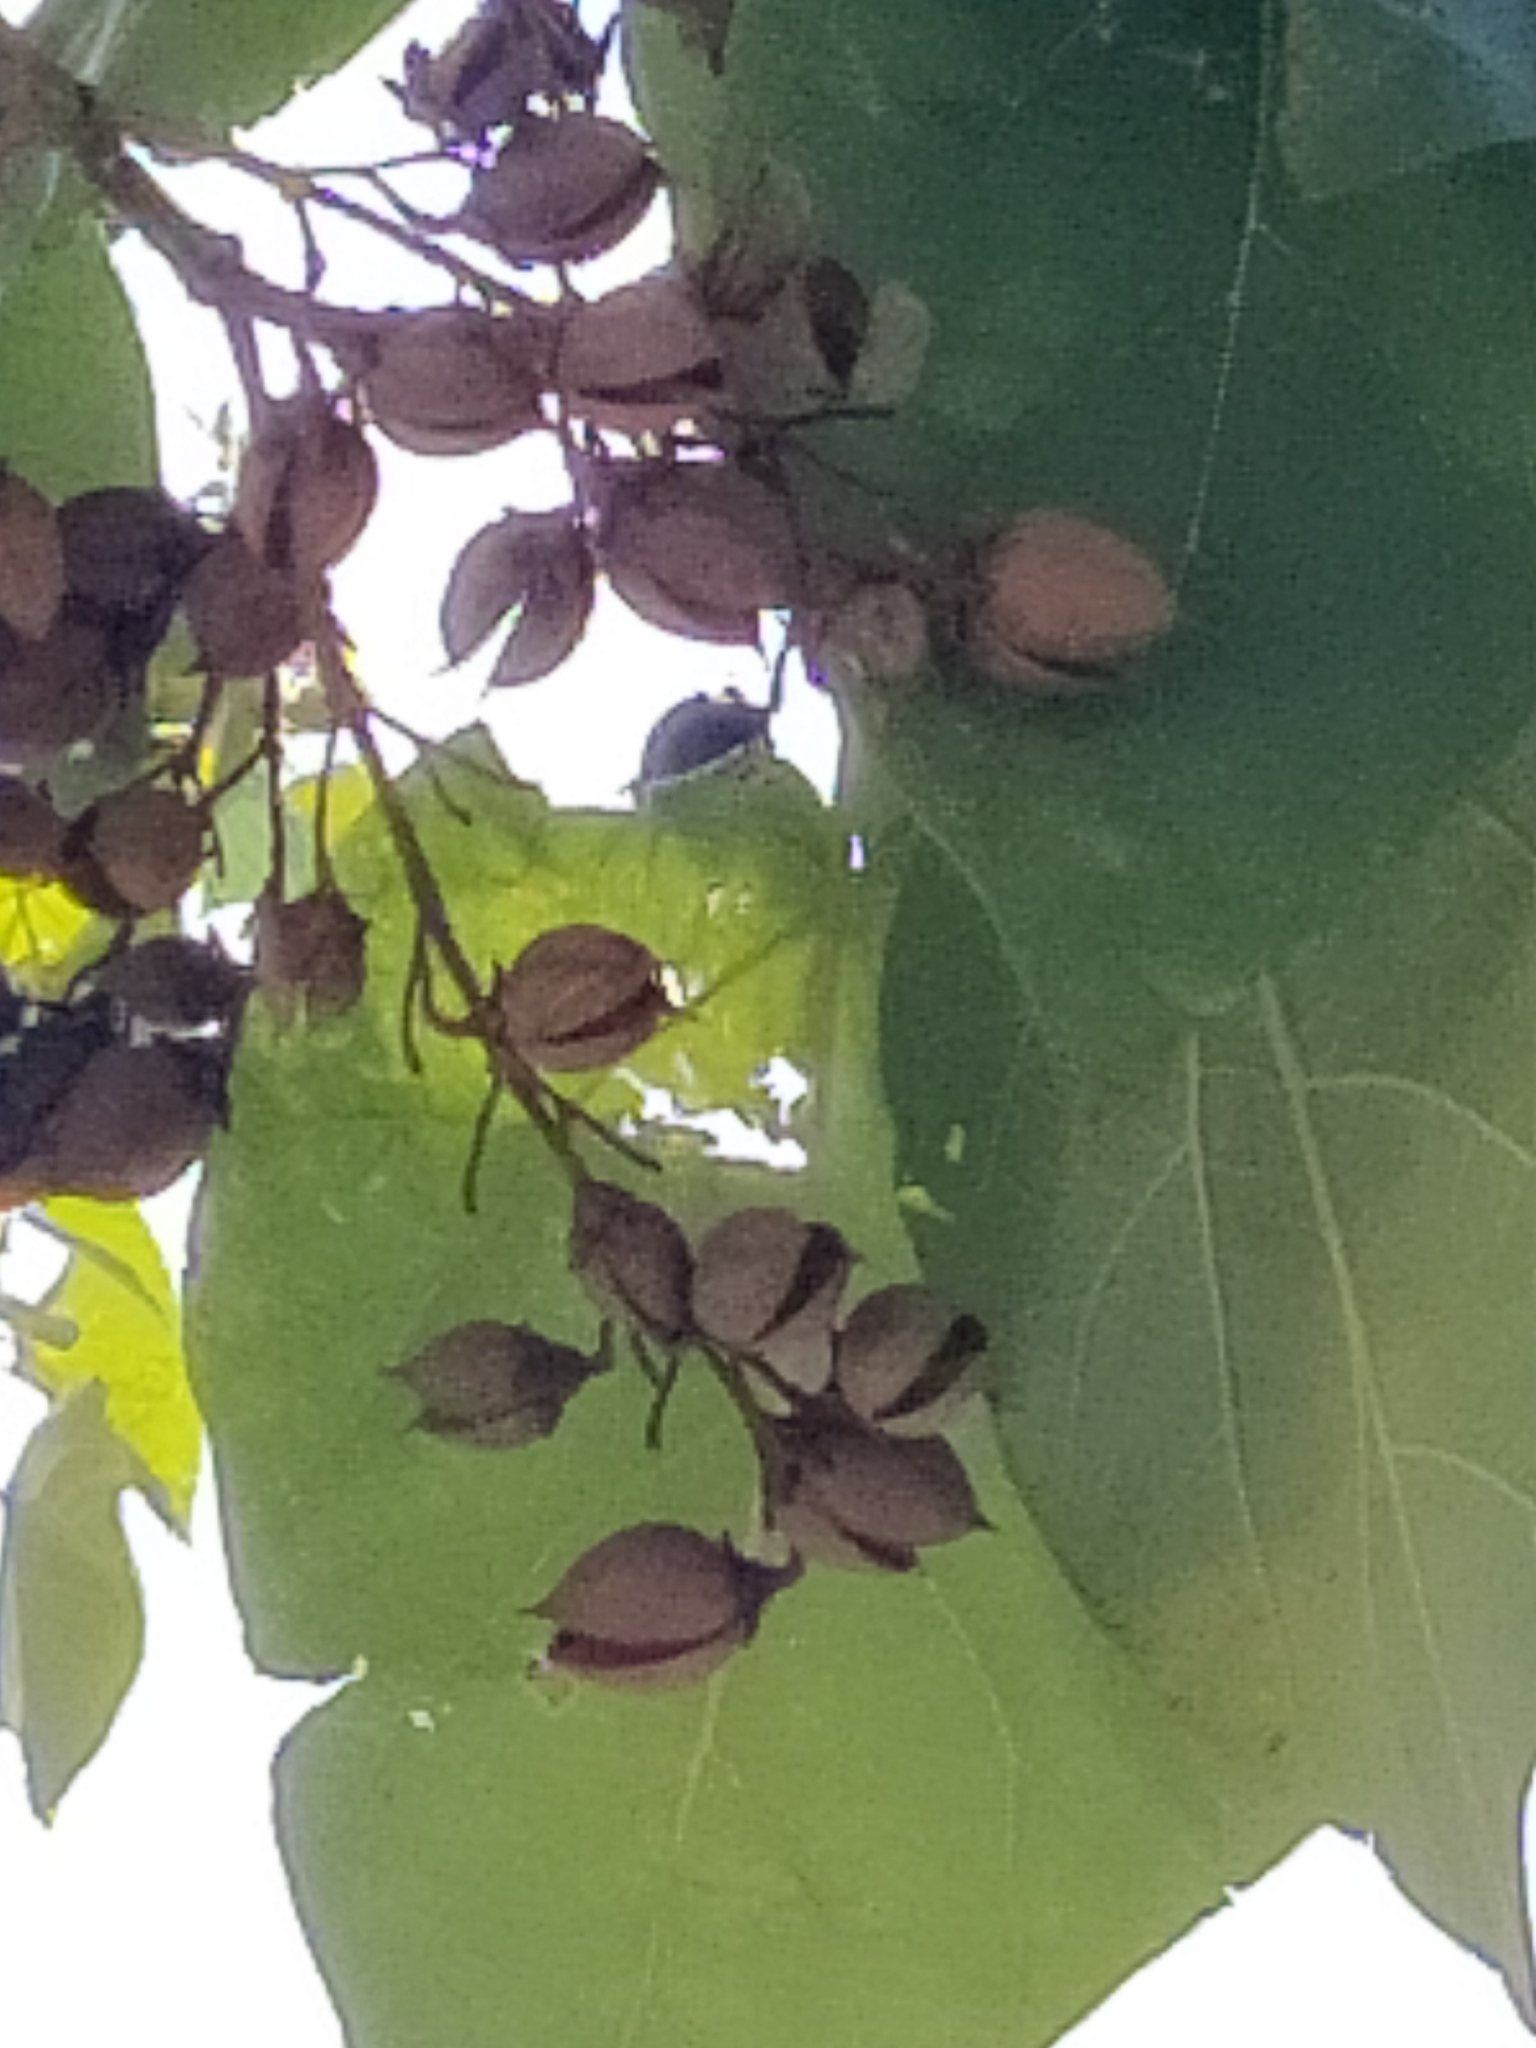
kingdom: Plantae
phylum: Tracheophyta
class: Magnoliopsida
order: Lamiales
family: Paulowniaceae
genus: Paulownia
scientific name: Paulownia tomentosa
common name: Foxglove-tree
